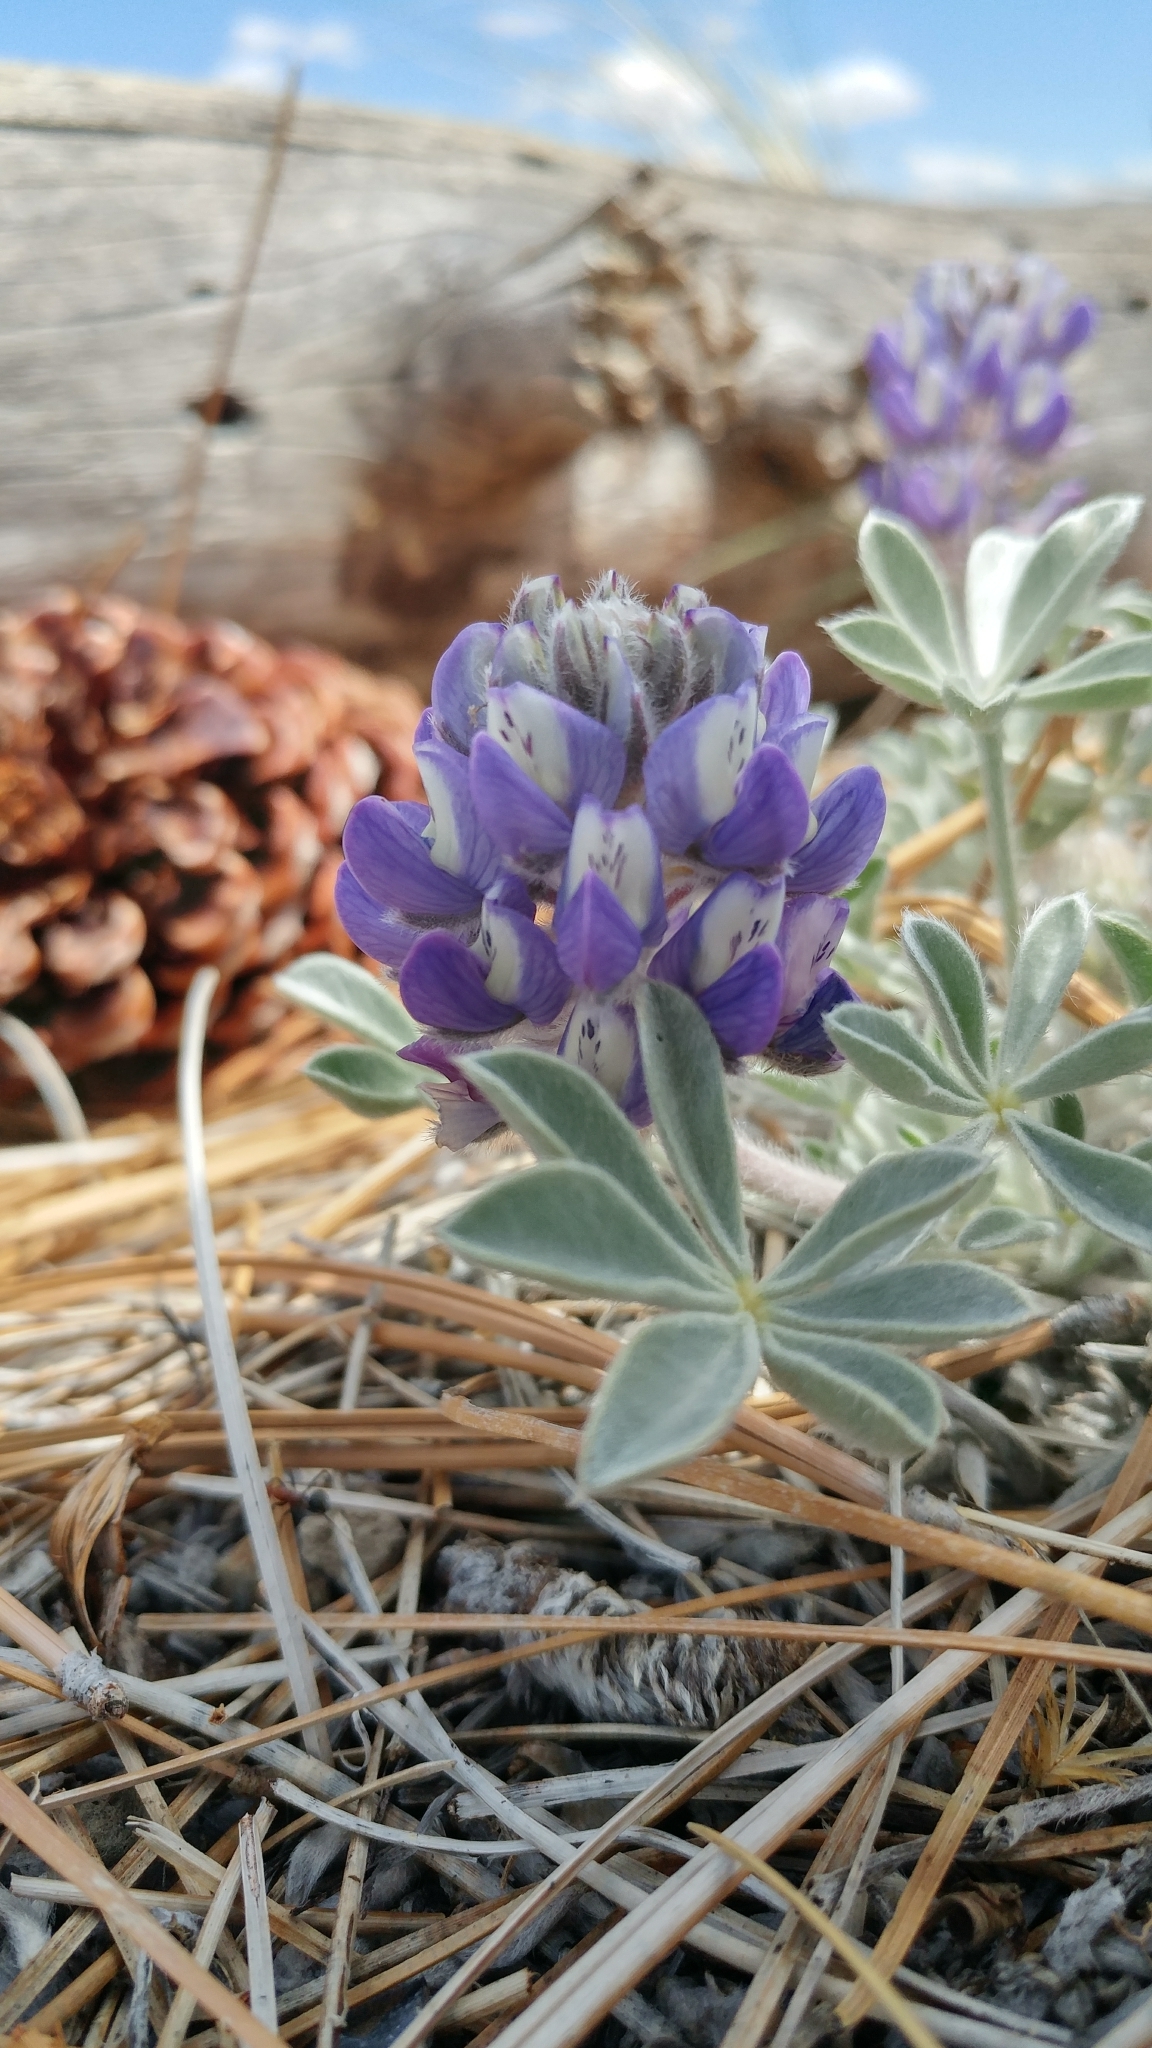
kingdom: Plantae
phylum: Tracheophyta
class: Magnoliopsida
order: Fabales
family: Fabaceae
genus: Lupinus
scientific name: Lupinus duranii
